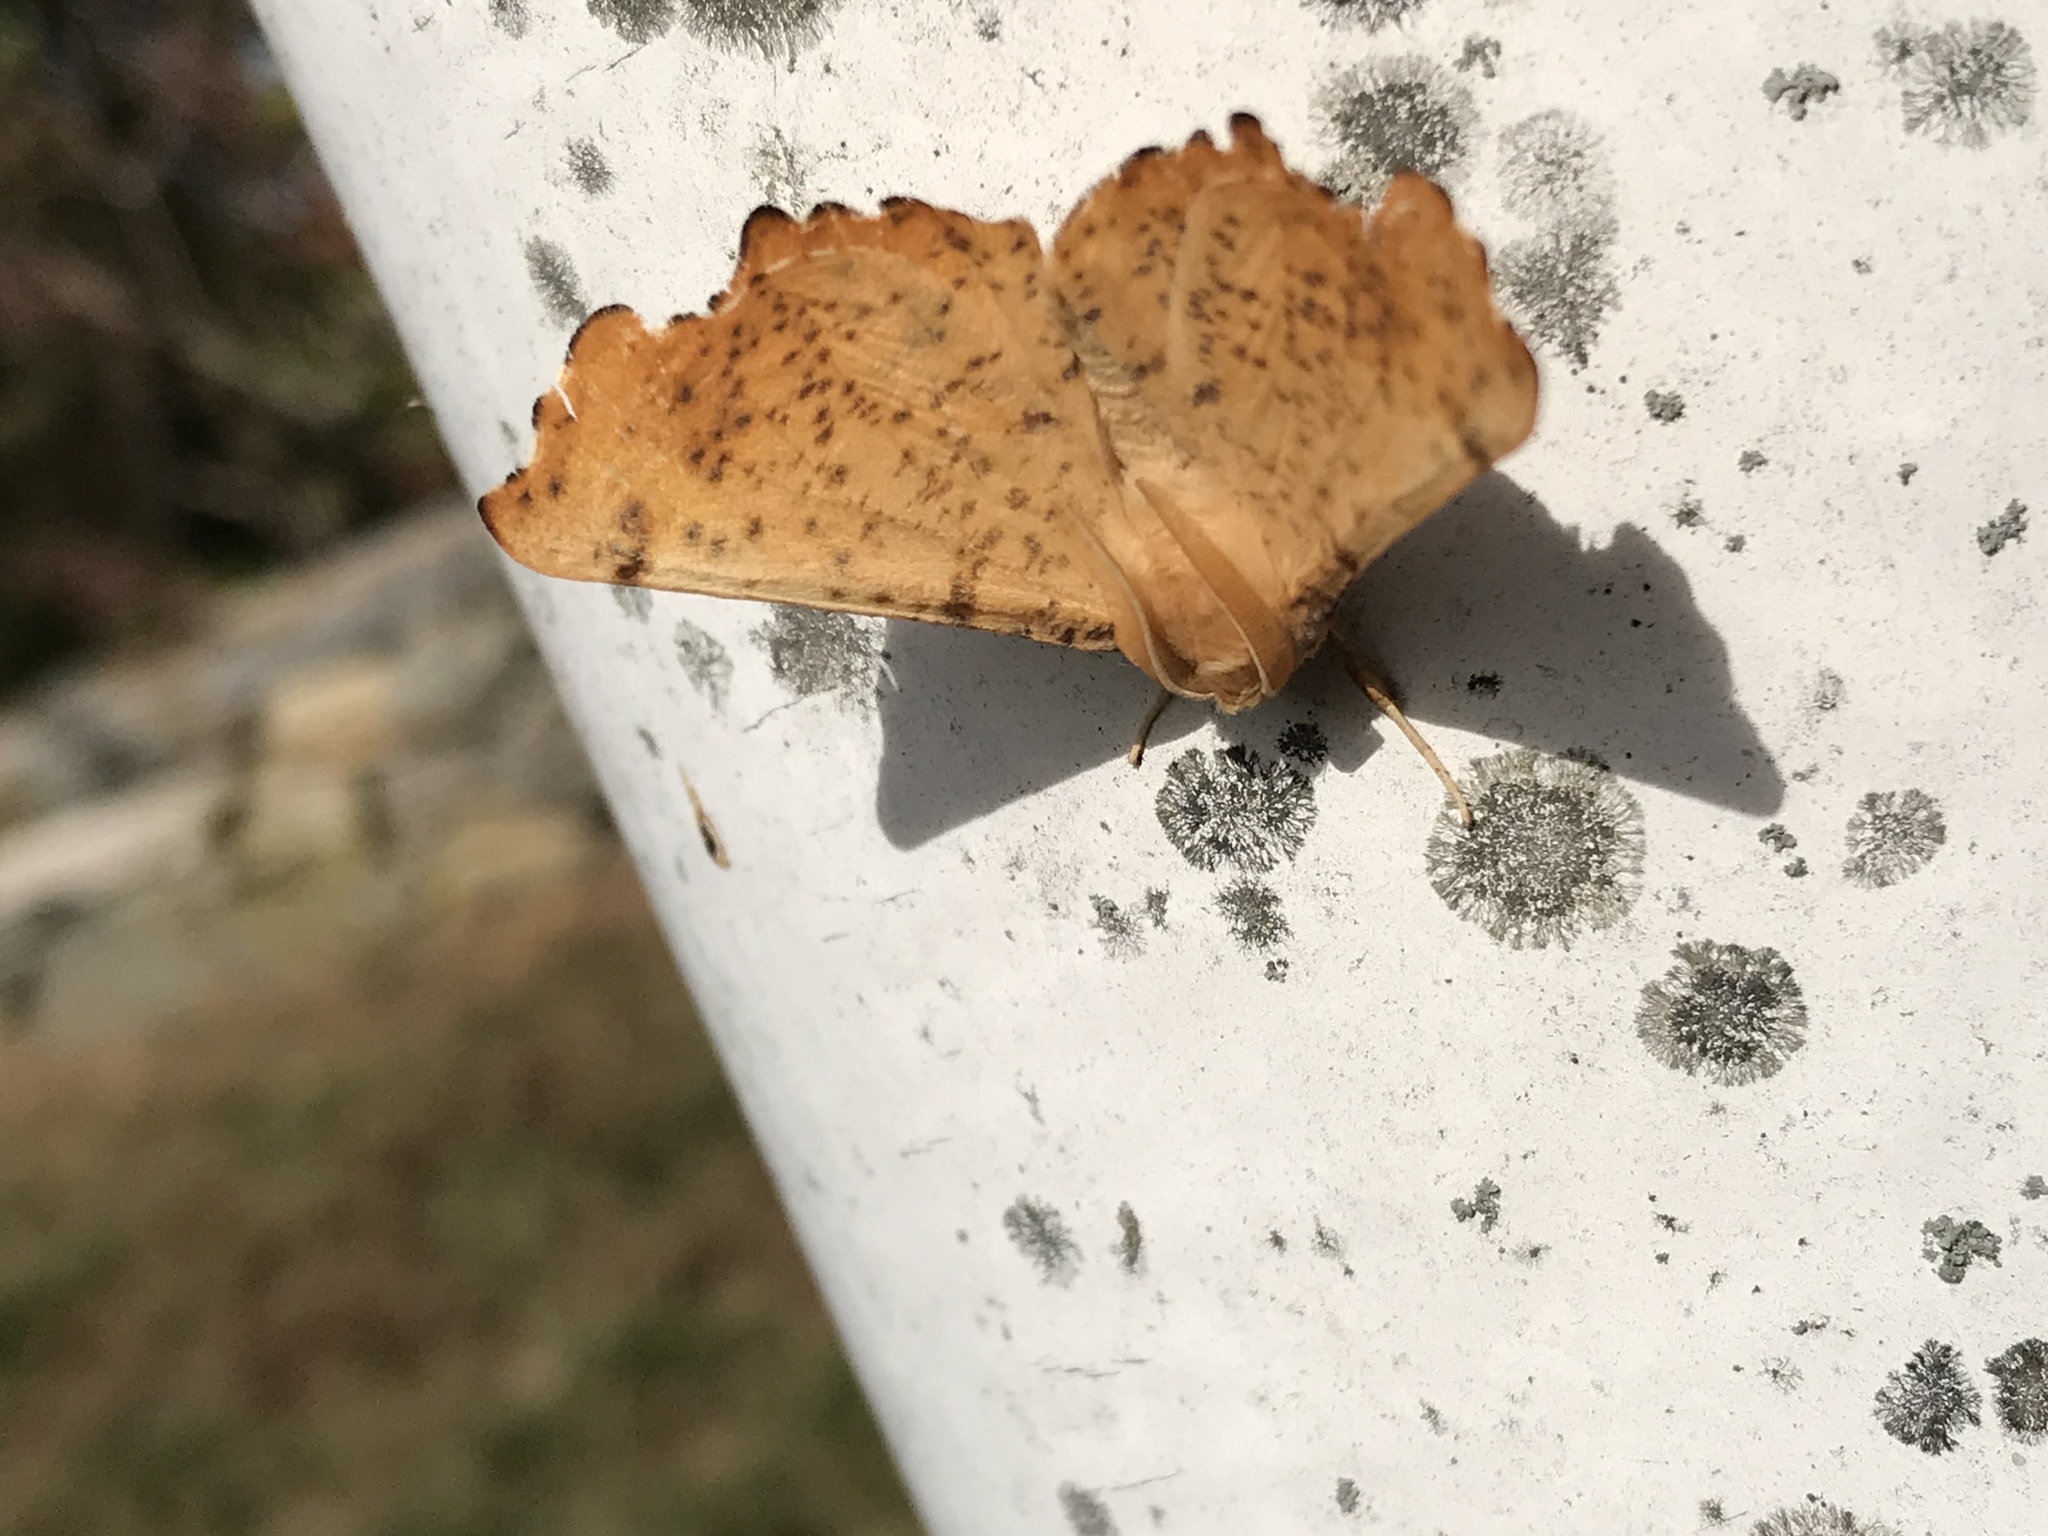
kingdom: Animalia
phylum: Arthropoda
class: Insecta
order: Lepidoptera
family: Geometridae
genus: Ennomos
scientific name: Ennomos magnaria
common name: Maple spanworm
